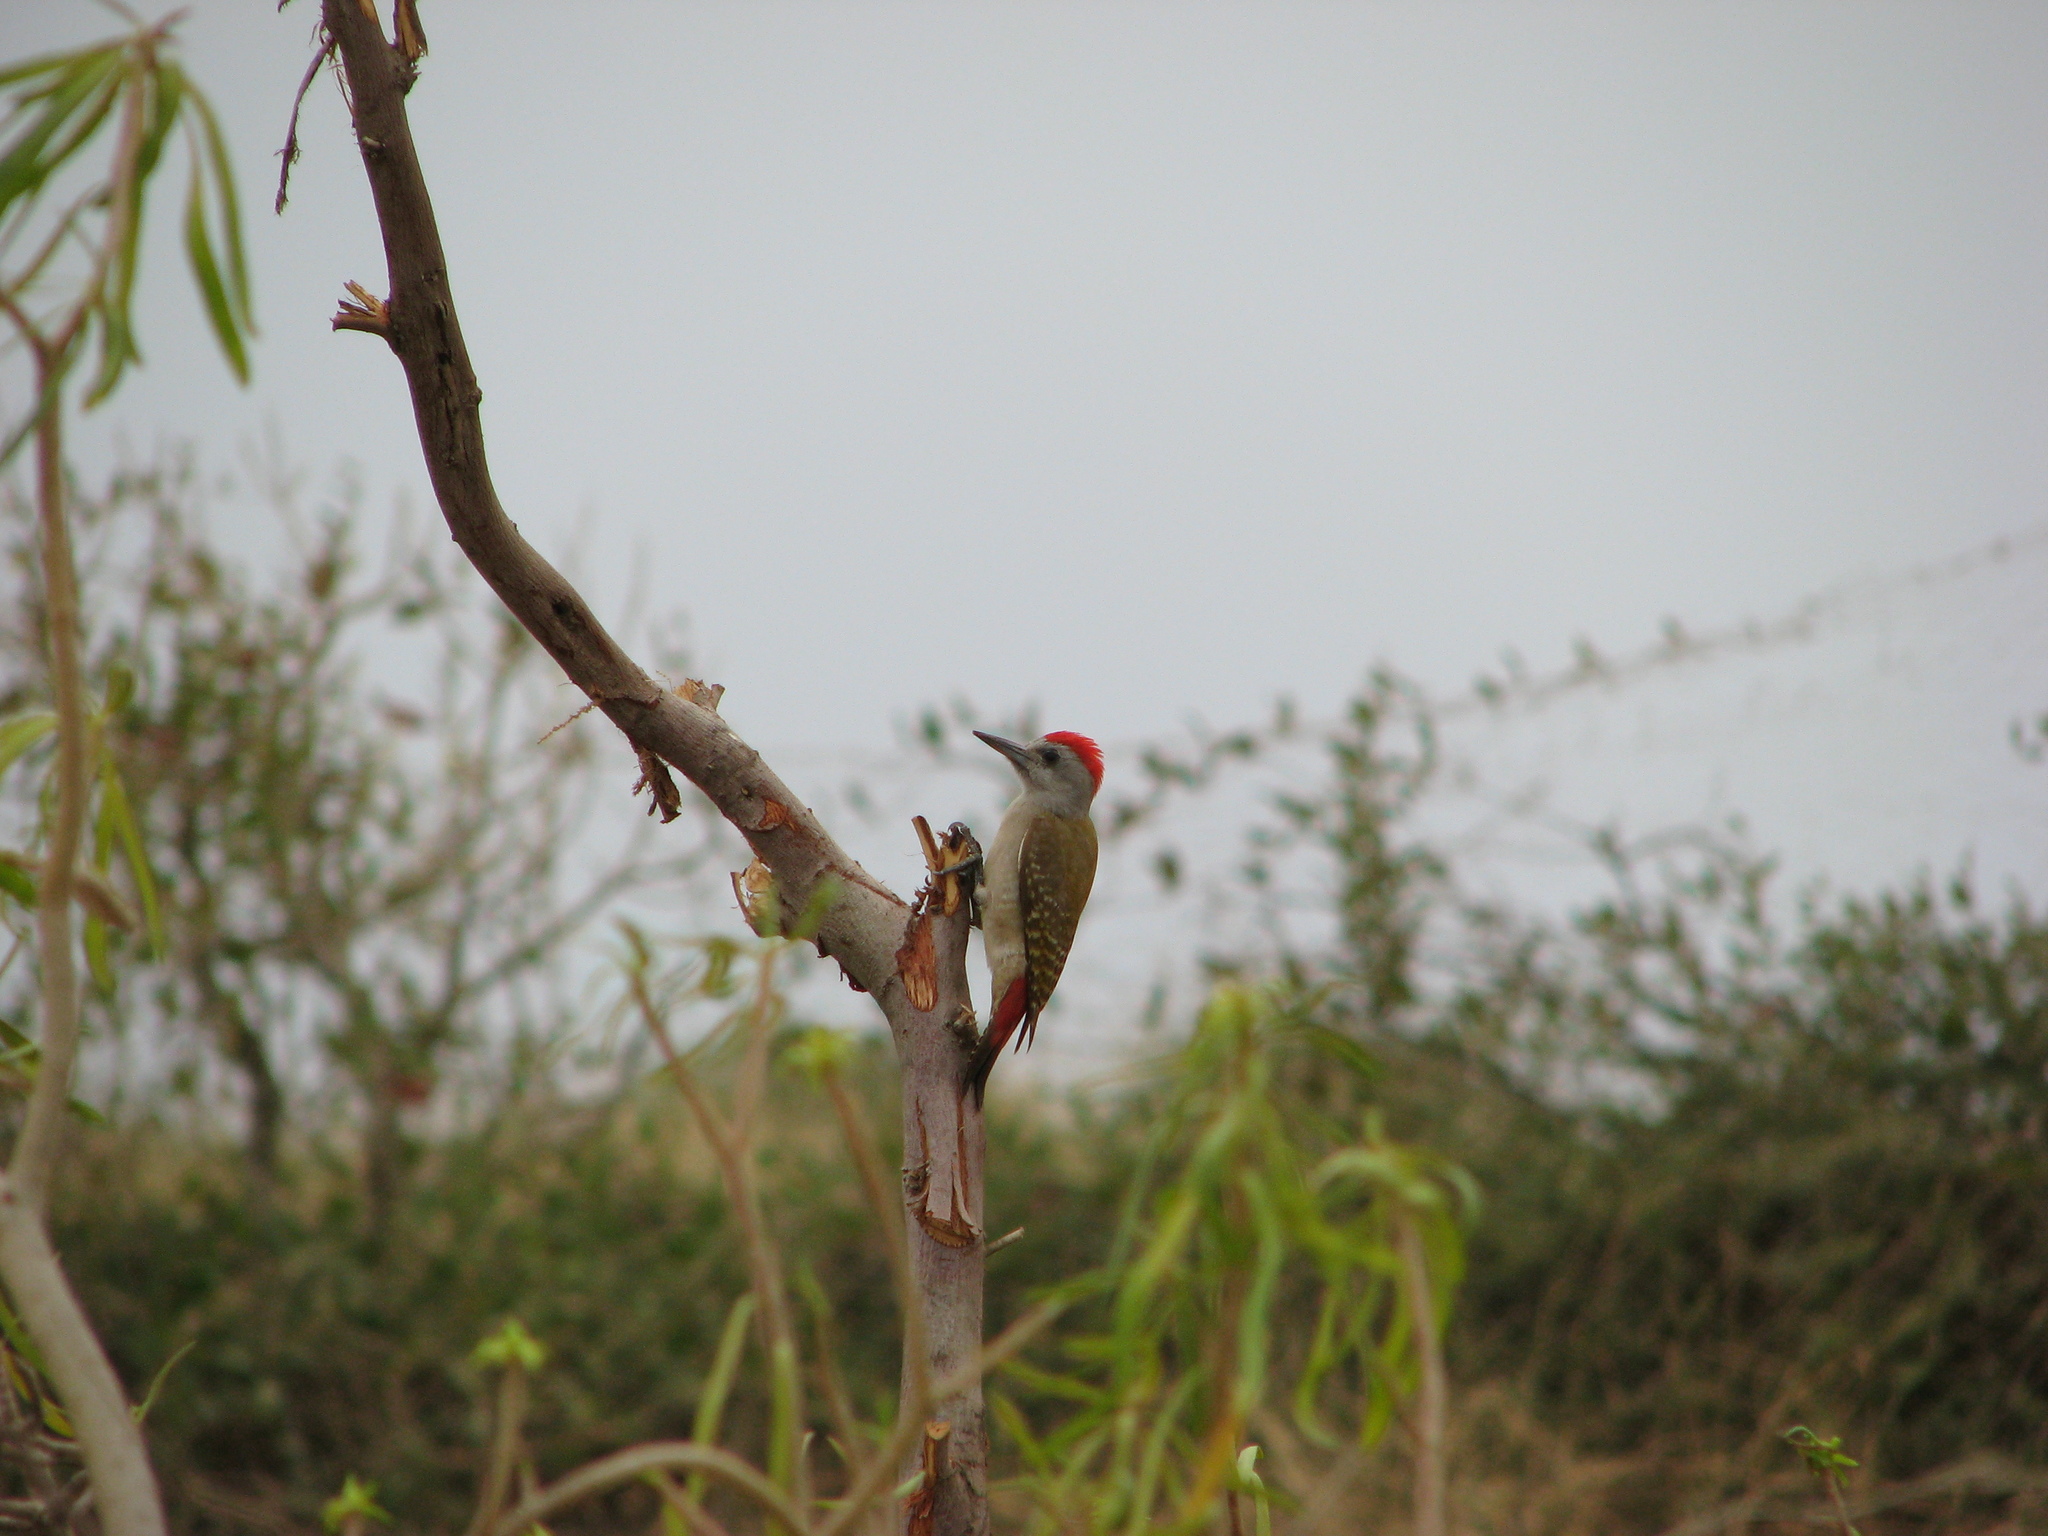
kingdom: Animalia
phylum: Chordata
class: Aves
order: Piciformes
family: Picidae
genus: Dendropicos
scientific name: Dendropicos goertae
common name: African grey woodpecker
